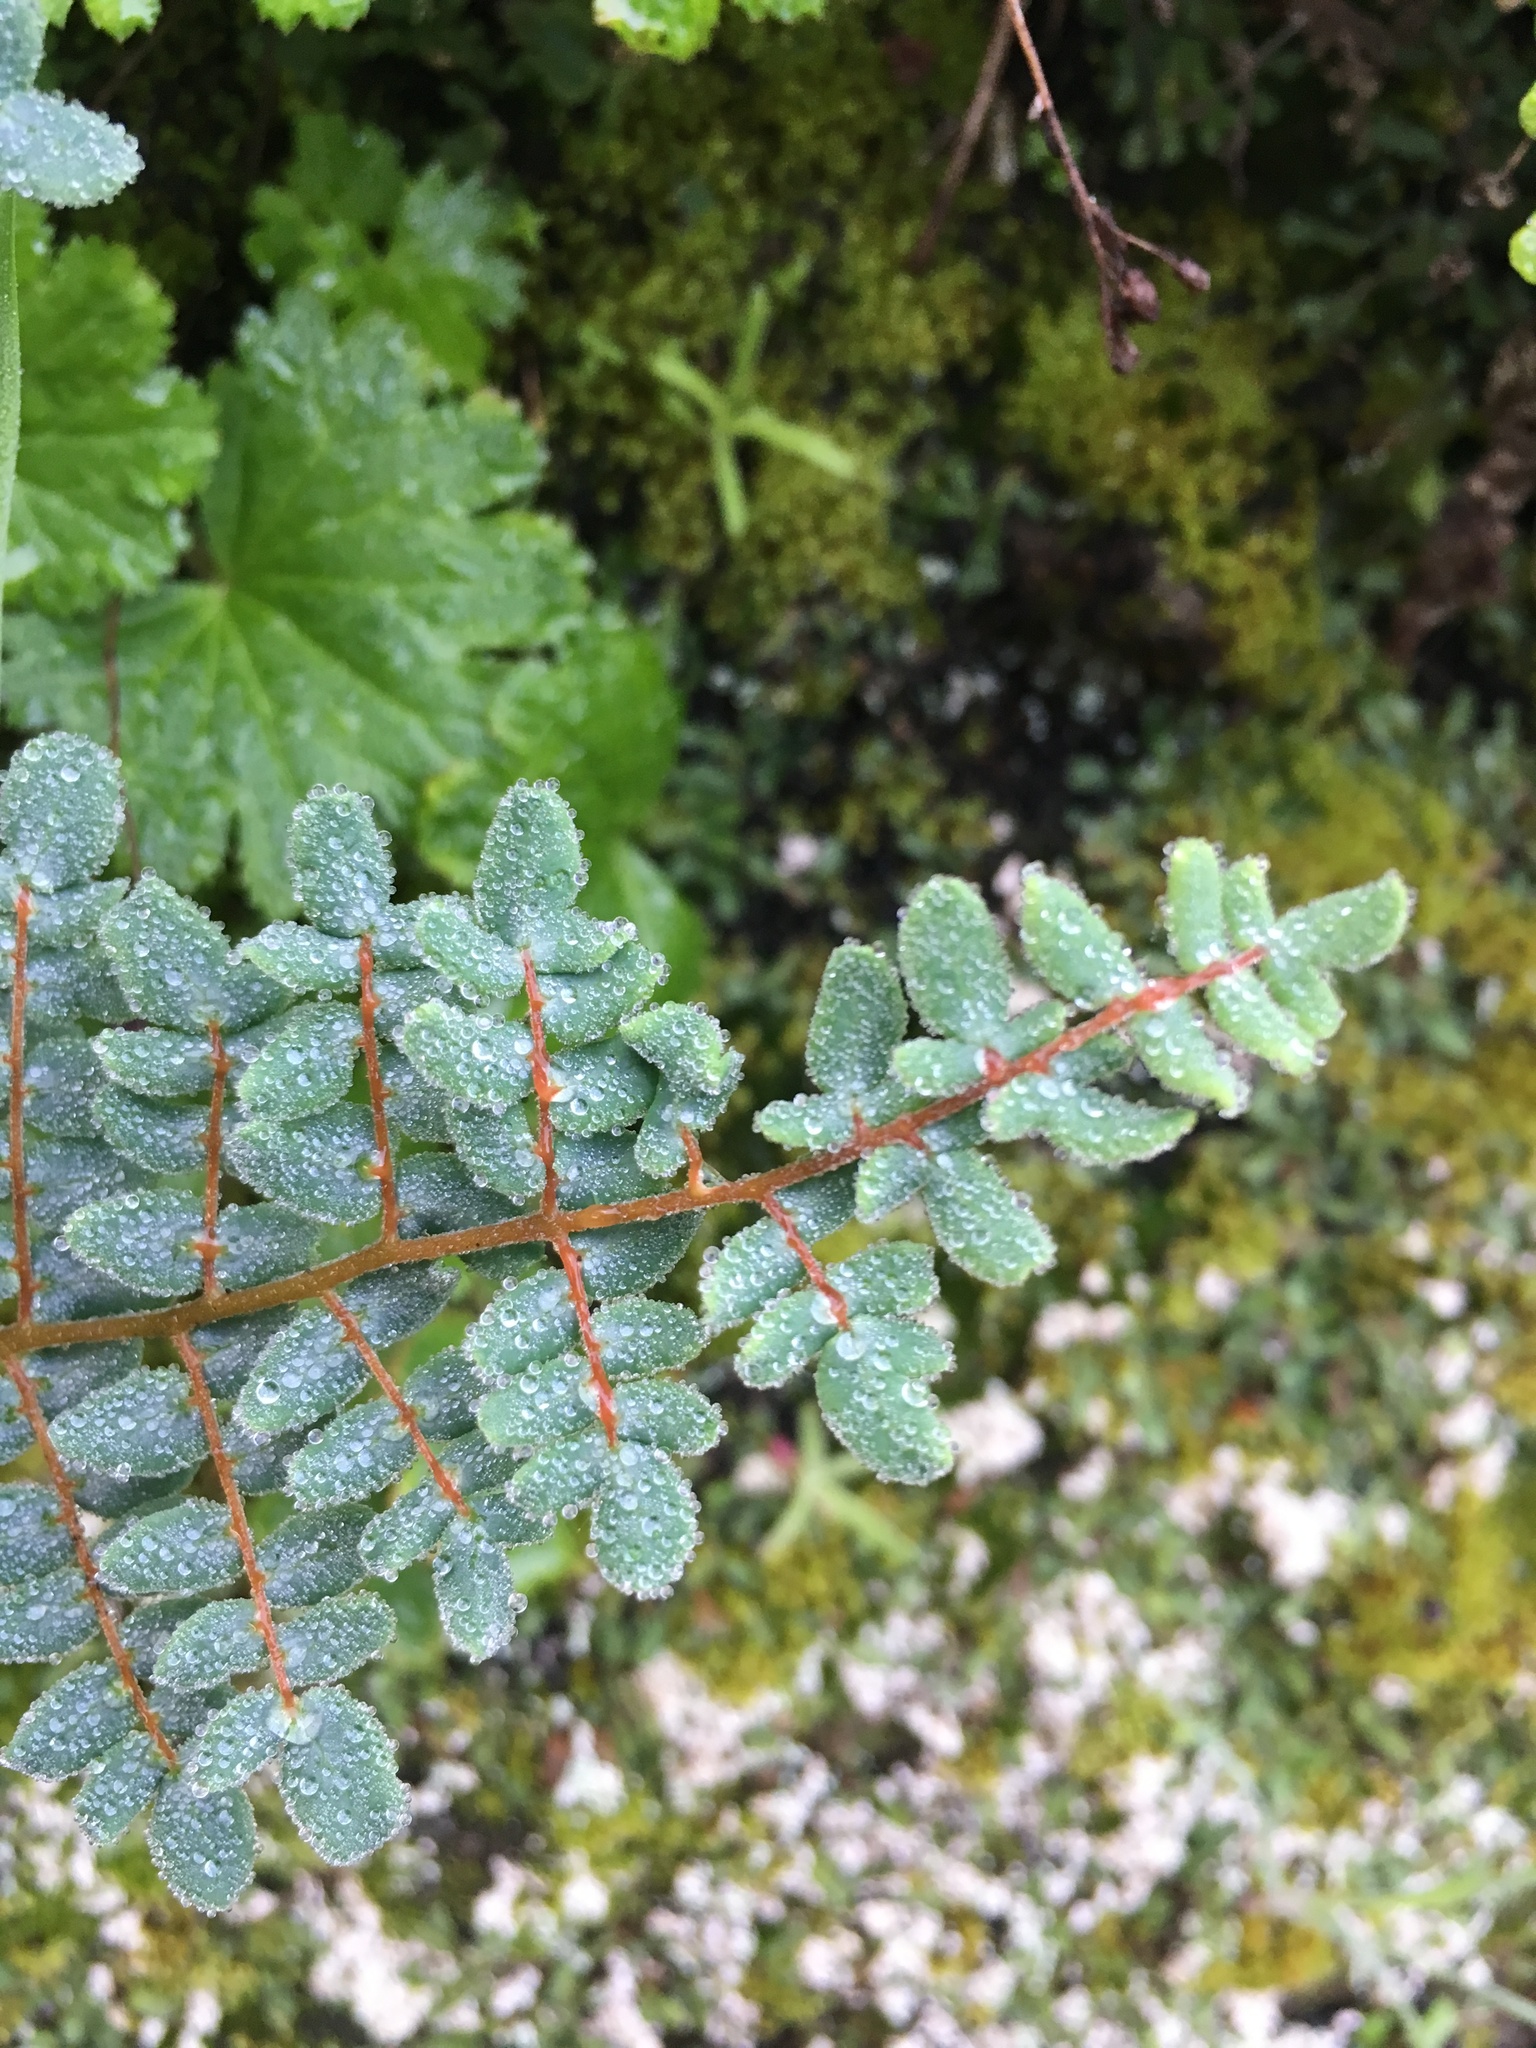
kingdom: Plantae
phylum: Tracheophyta
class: Polypodiopsida
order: Polypodiales
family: Pteridaceae
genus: Pellaea
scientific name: Pellaea andromedifolia
